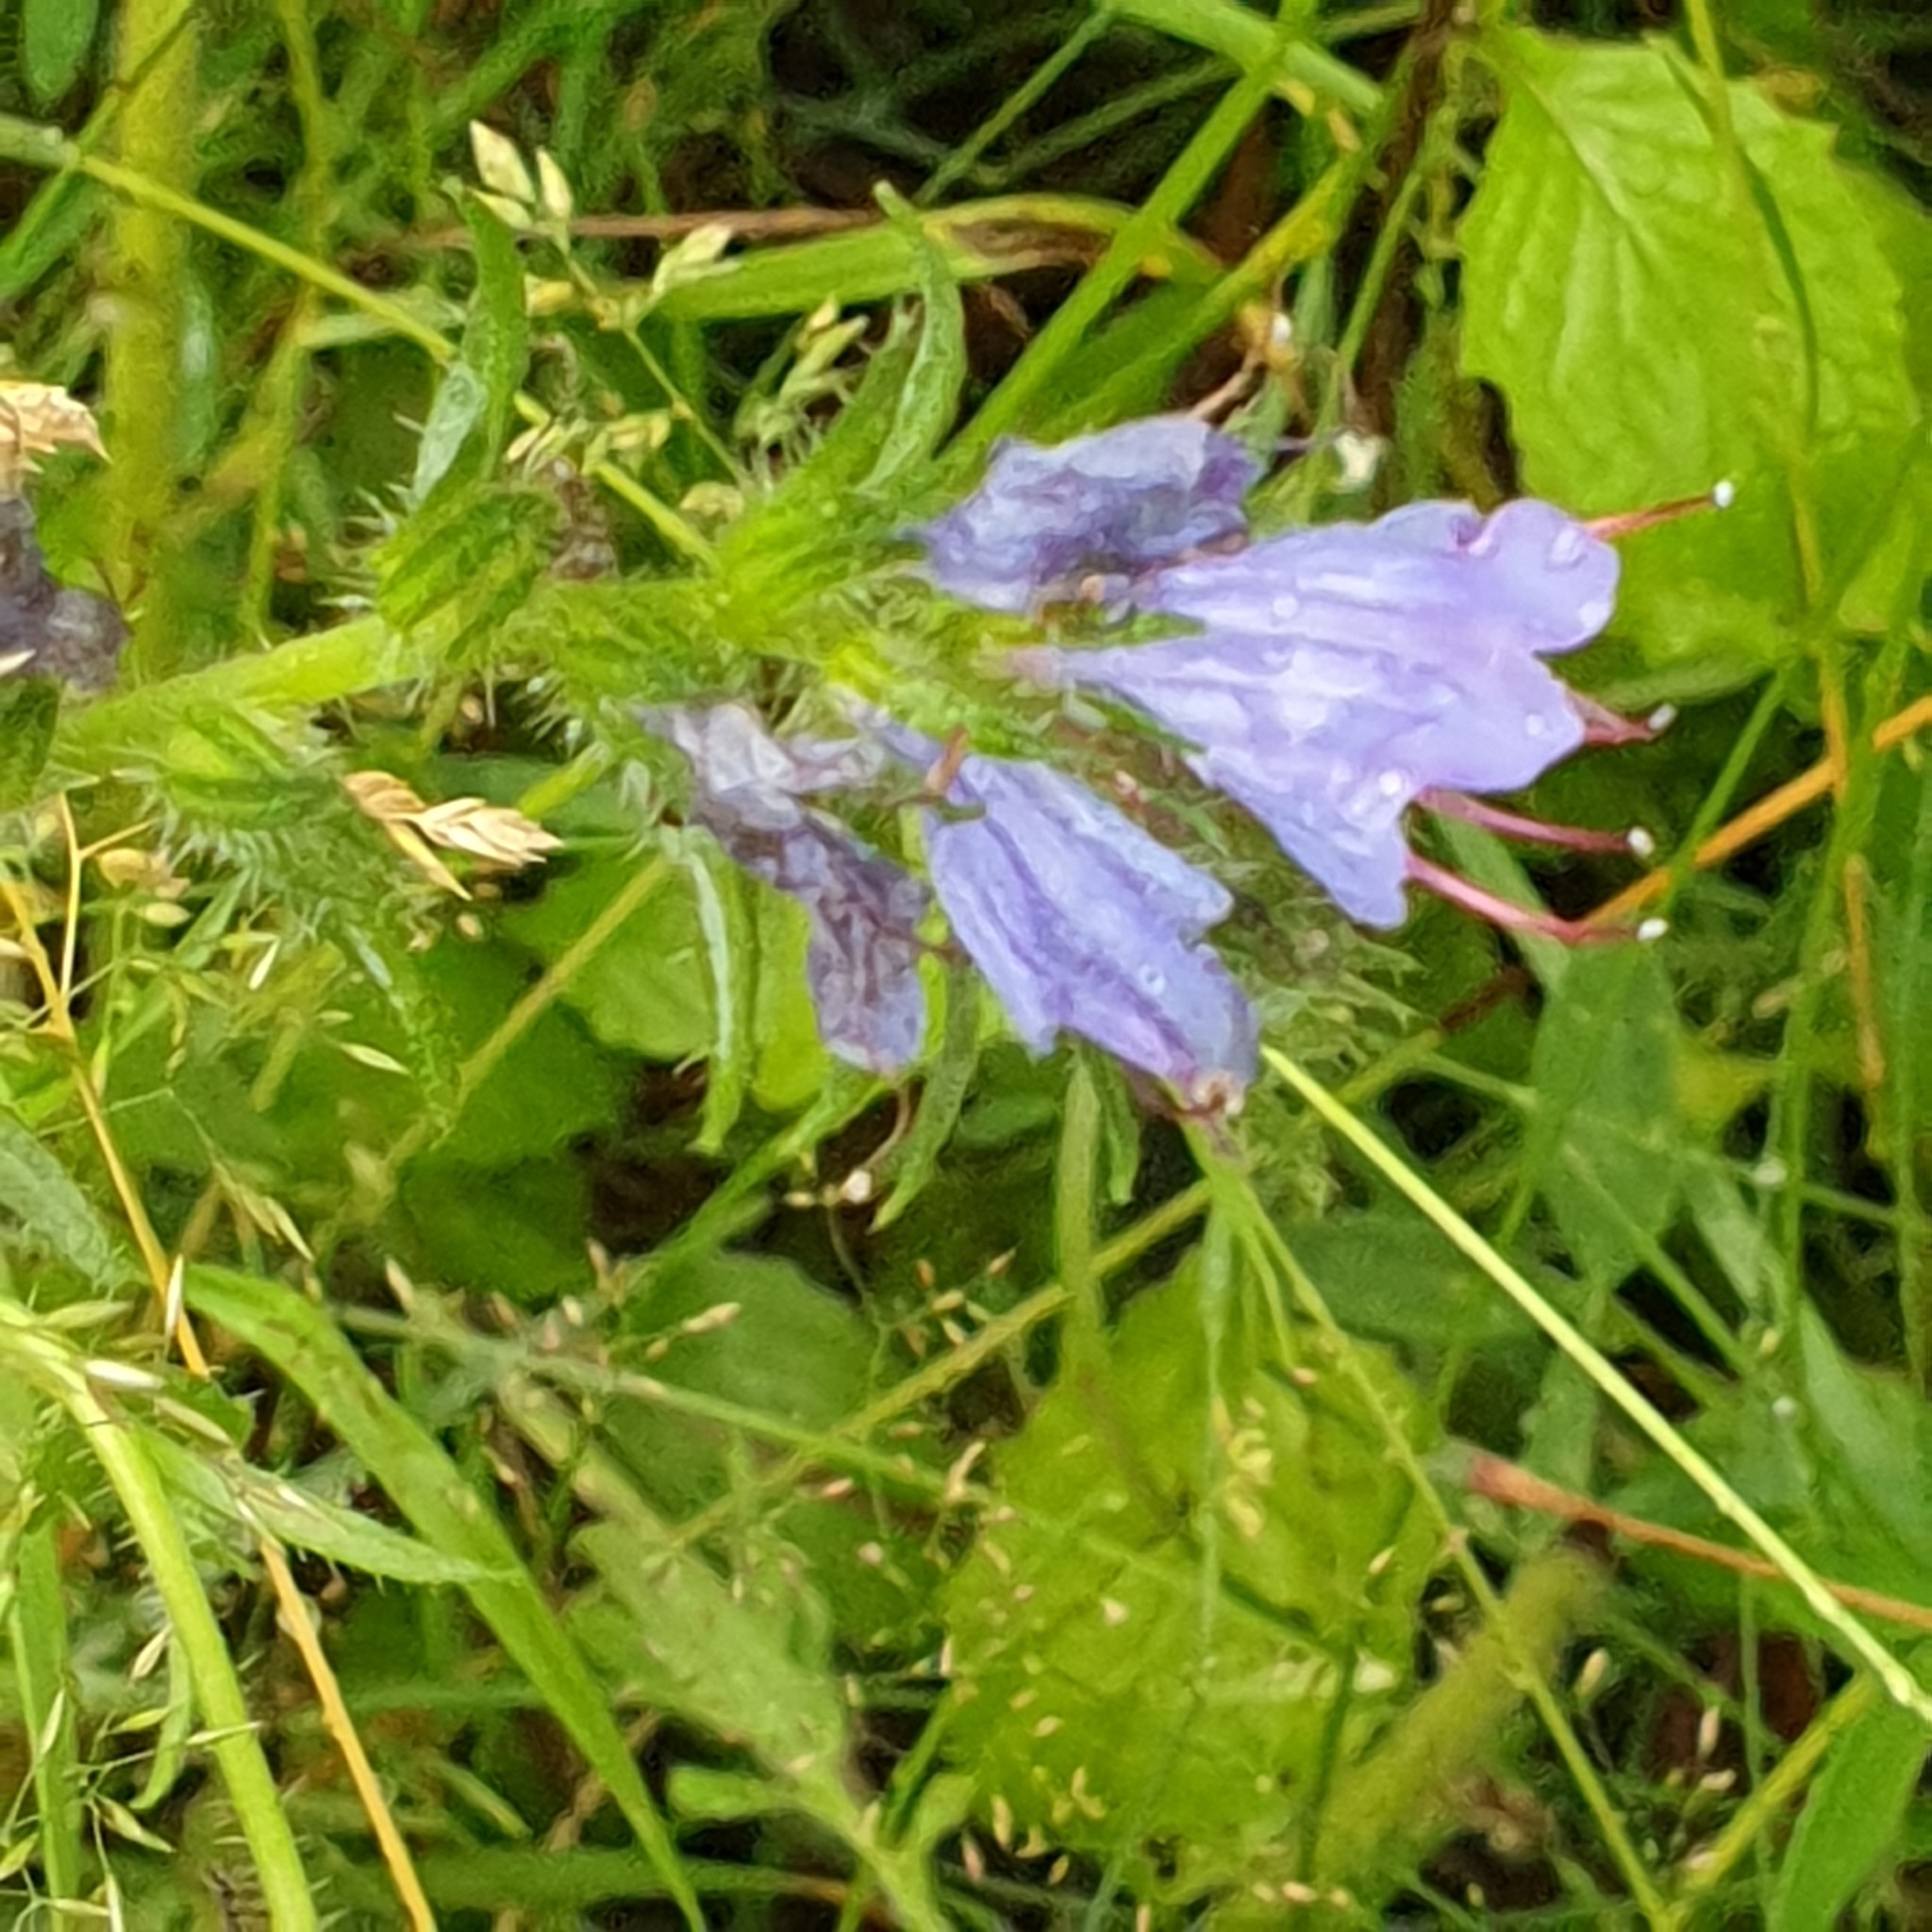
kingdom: Plantae
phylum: Tracheophyta
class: Magnoliopsida
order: Boraginales
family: Boraginaceae
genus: Echium
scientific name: Echium vulgare
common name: Common viper's bugloss
